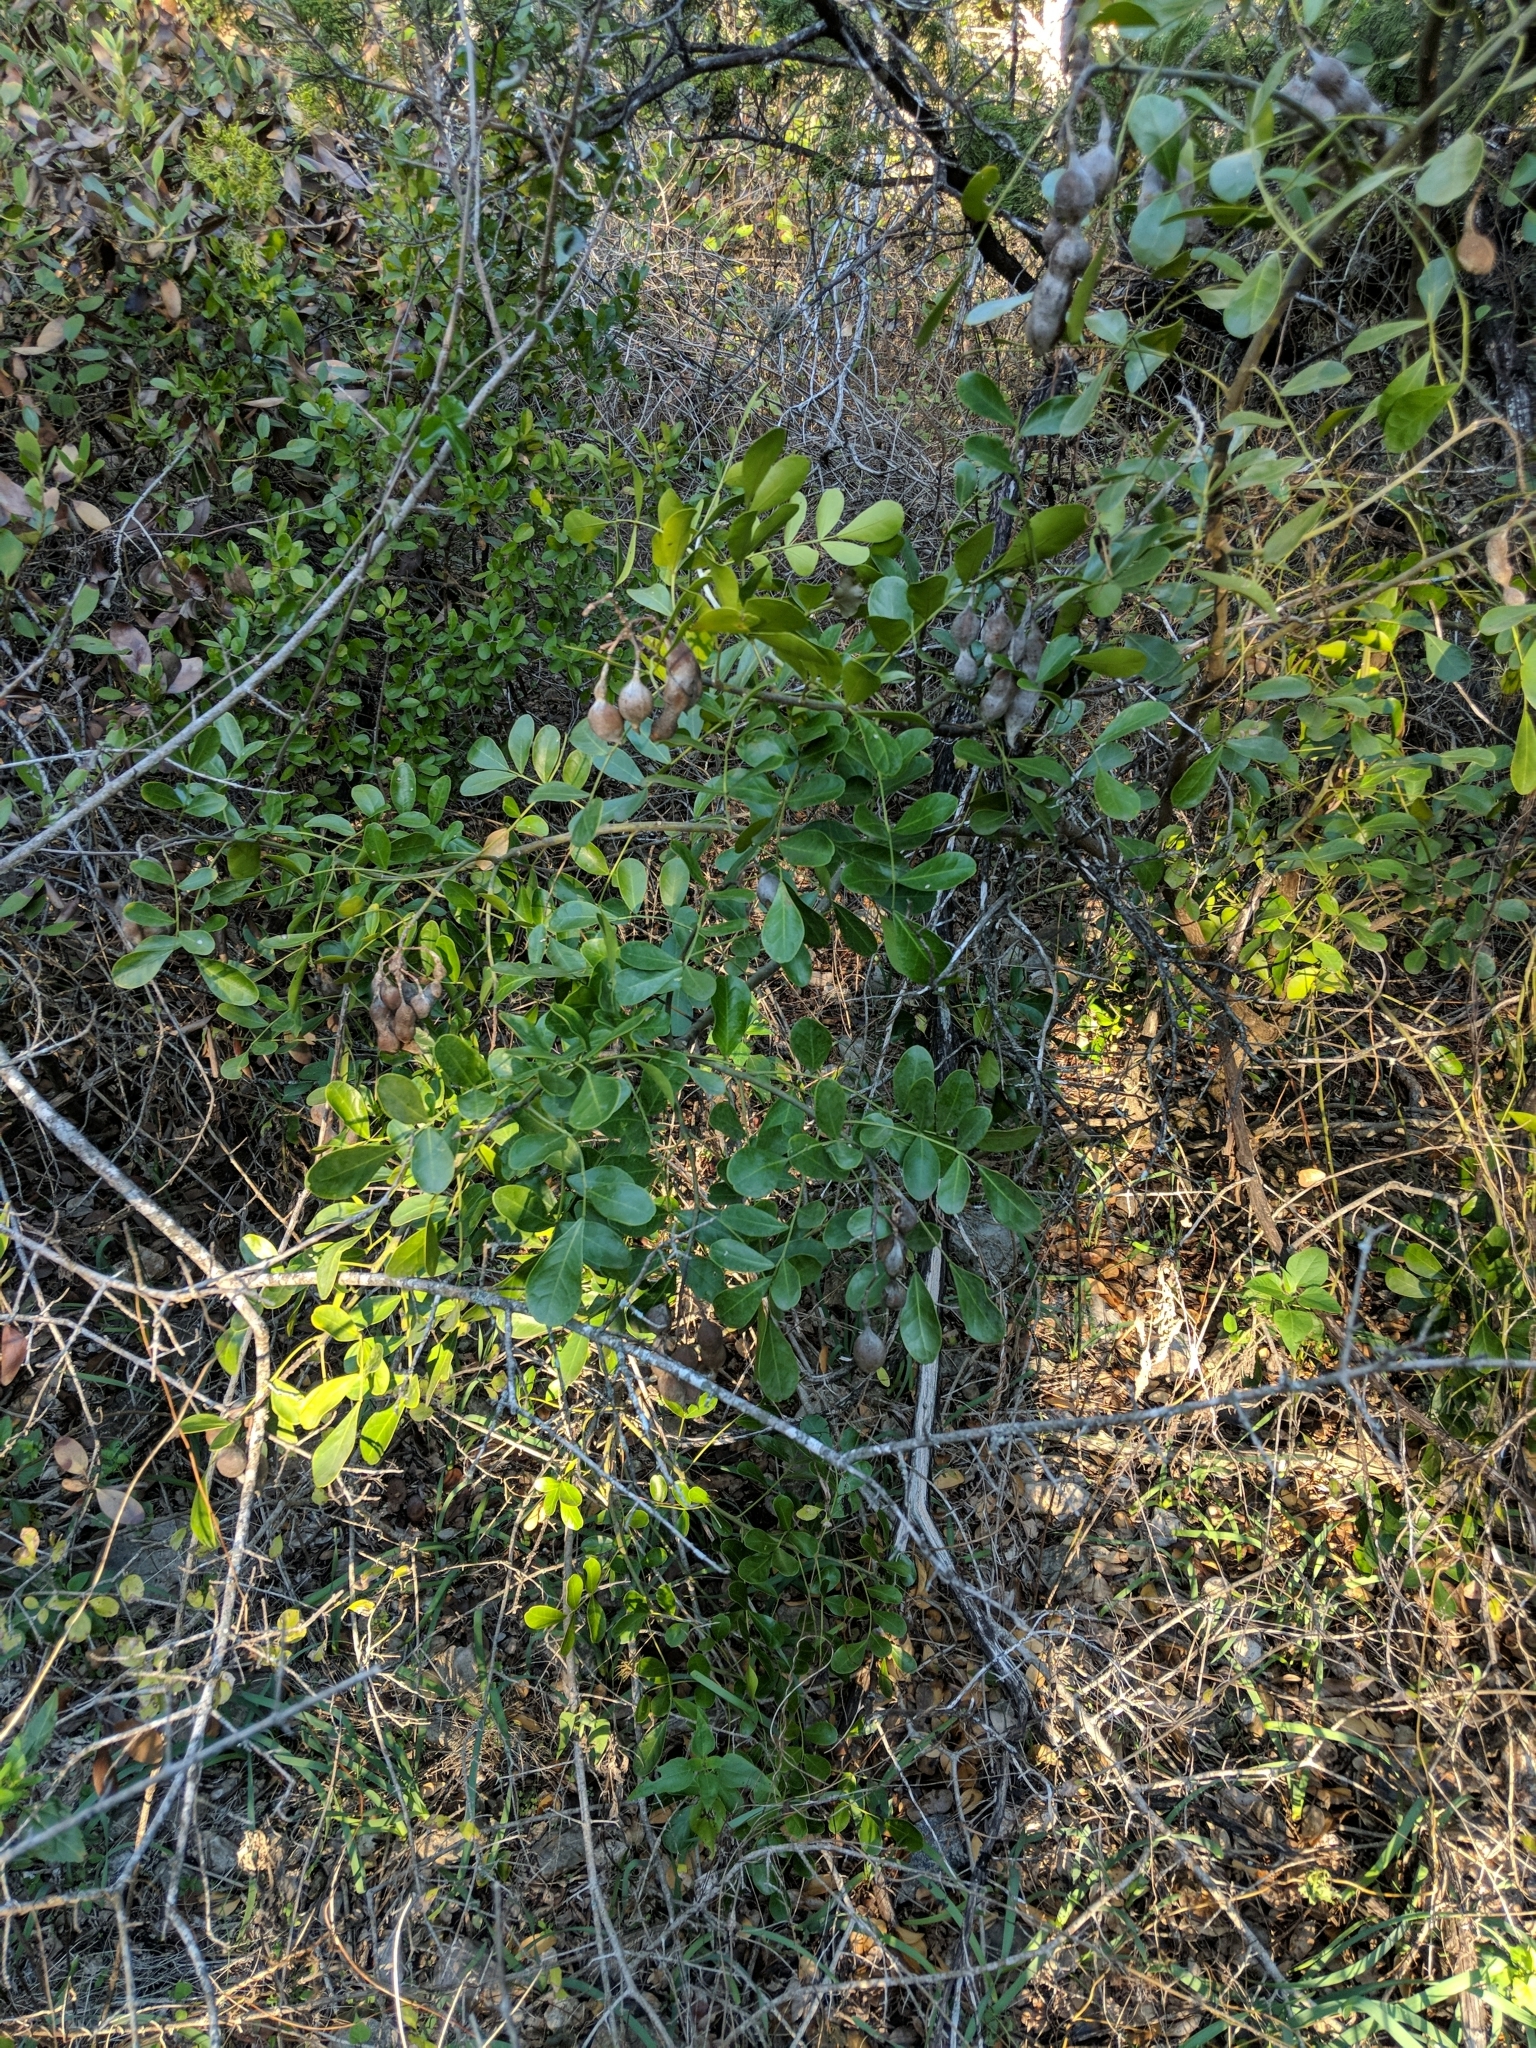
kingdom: Plantae
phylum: Tracheophyta
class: Magnoliopsida
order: Fabales
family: Fabaceae
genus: Dermatophyllum
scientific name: Dermatophyllum secundiflorum
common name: Texas-mountain-laurel
